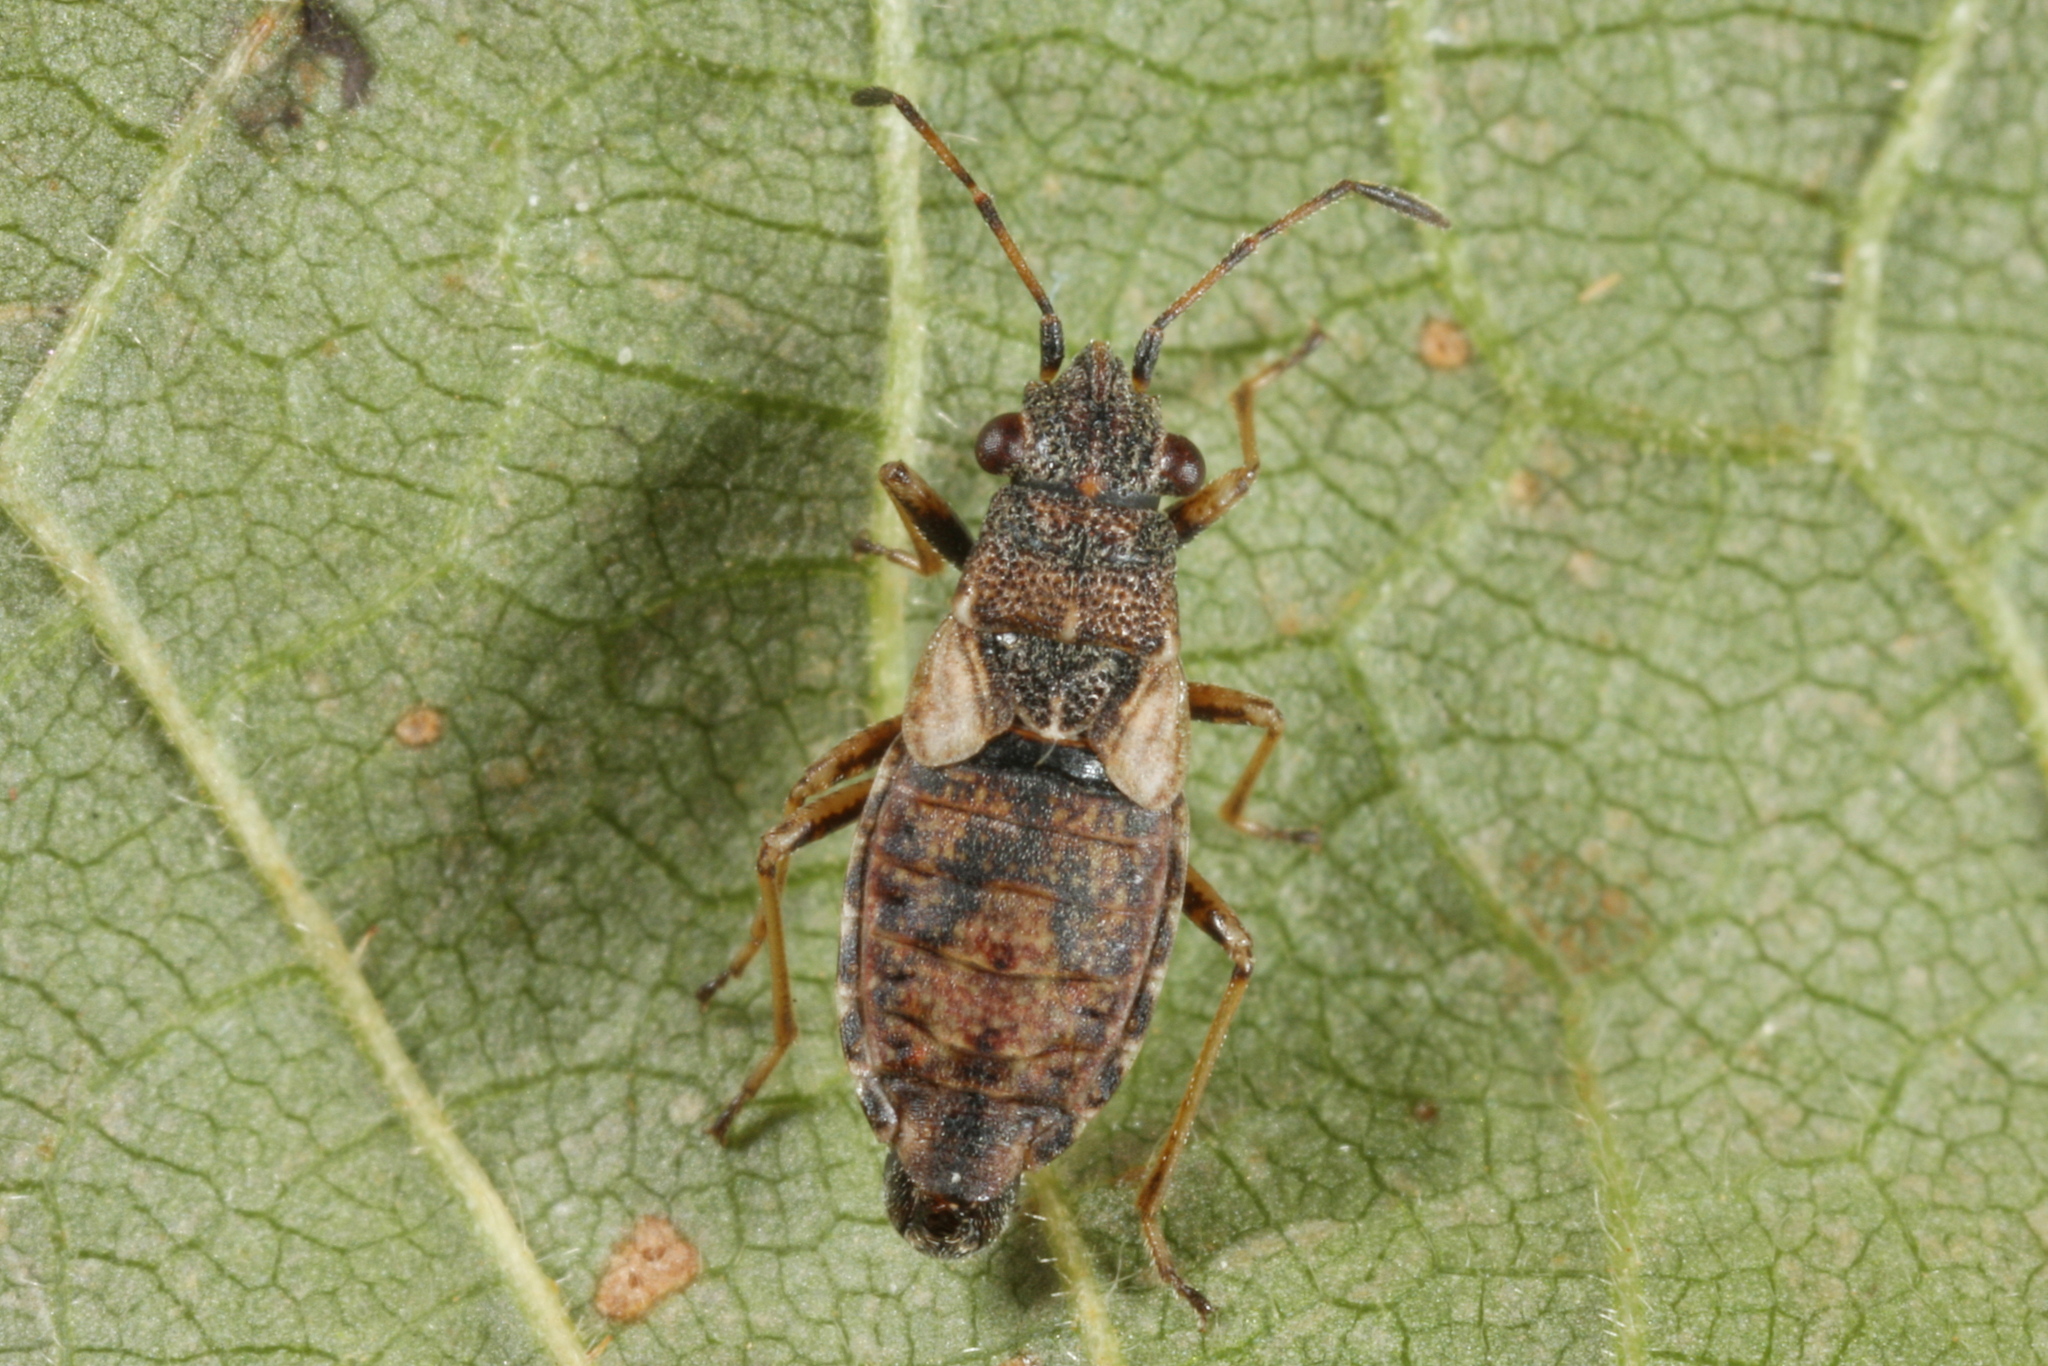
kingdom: Animalia
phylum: Arthropoda
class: Insecta
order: Hemiptera
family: Lygaeidae
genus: Nithecus
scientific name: Nithecus jacobaeae
